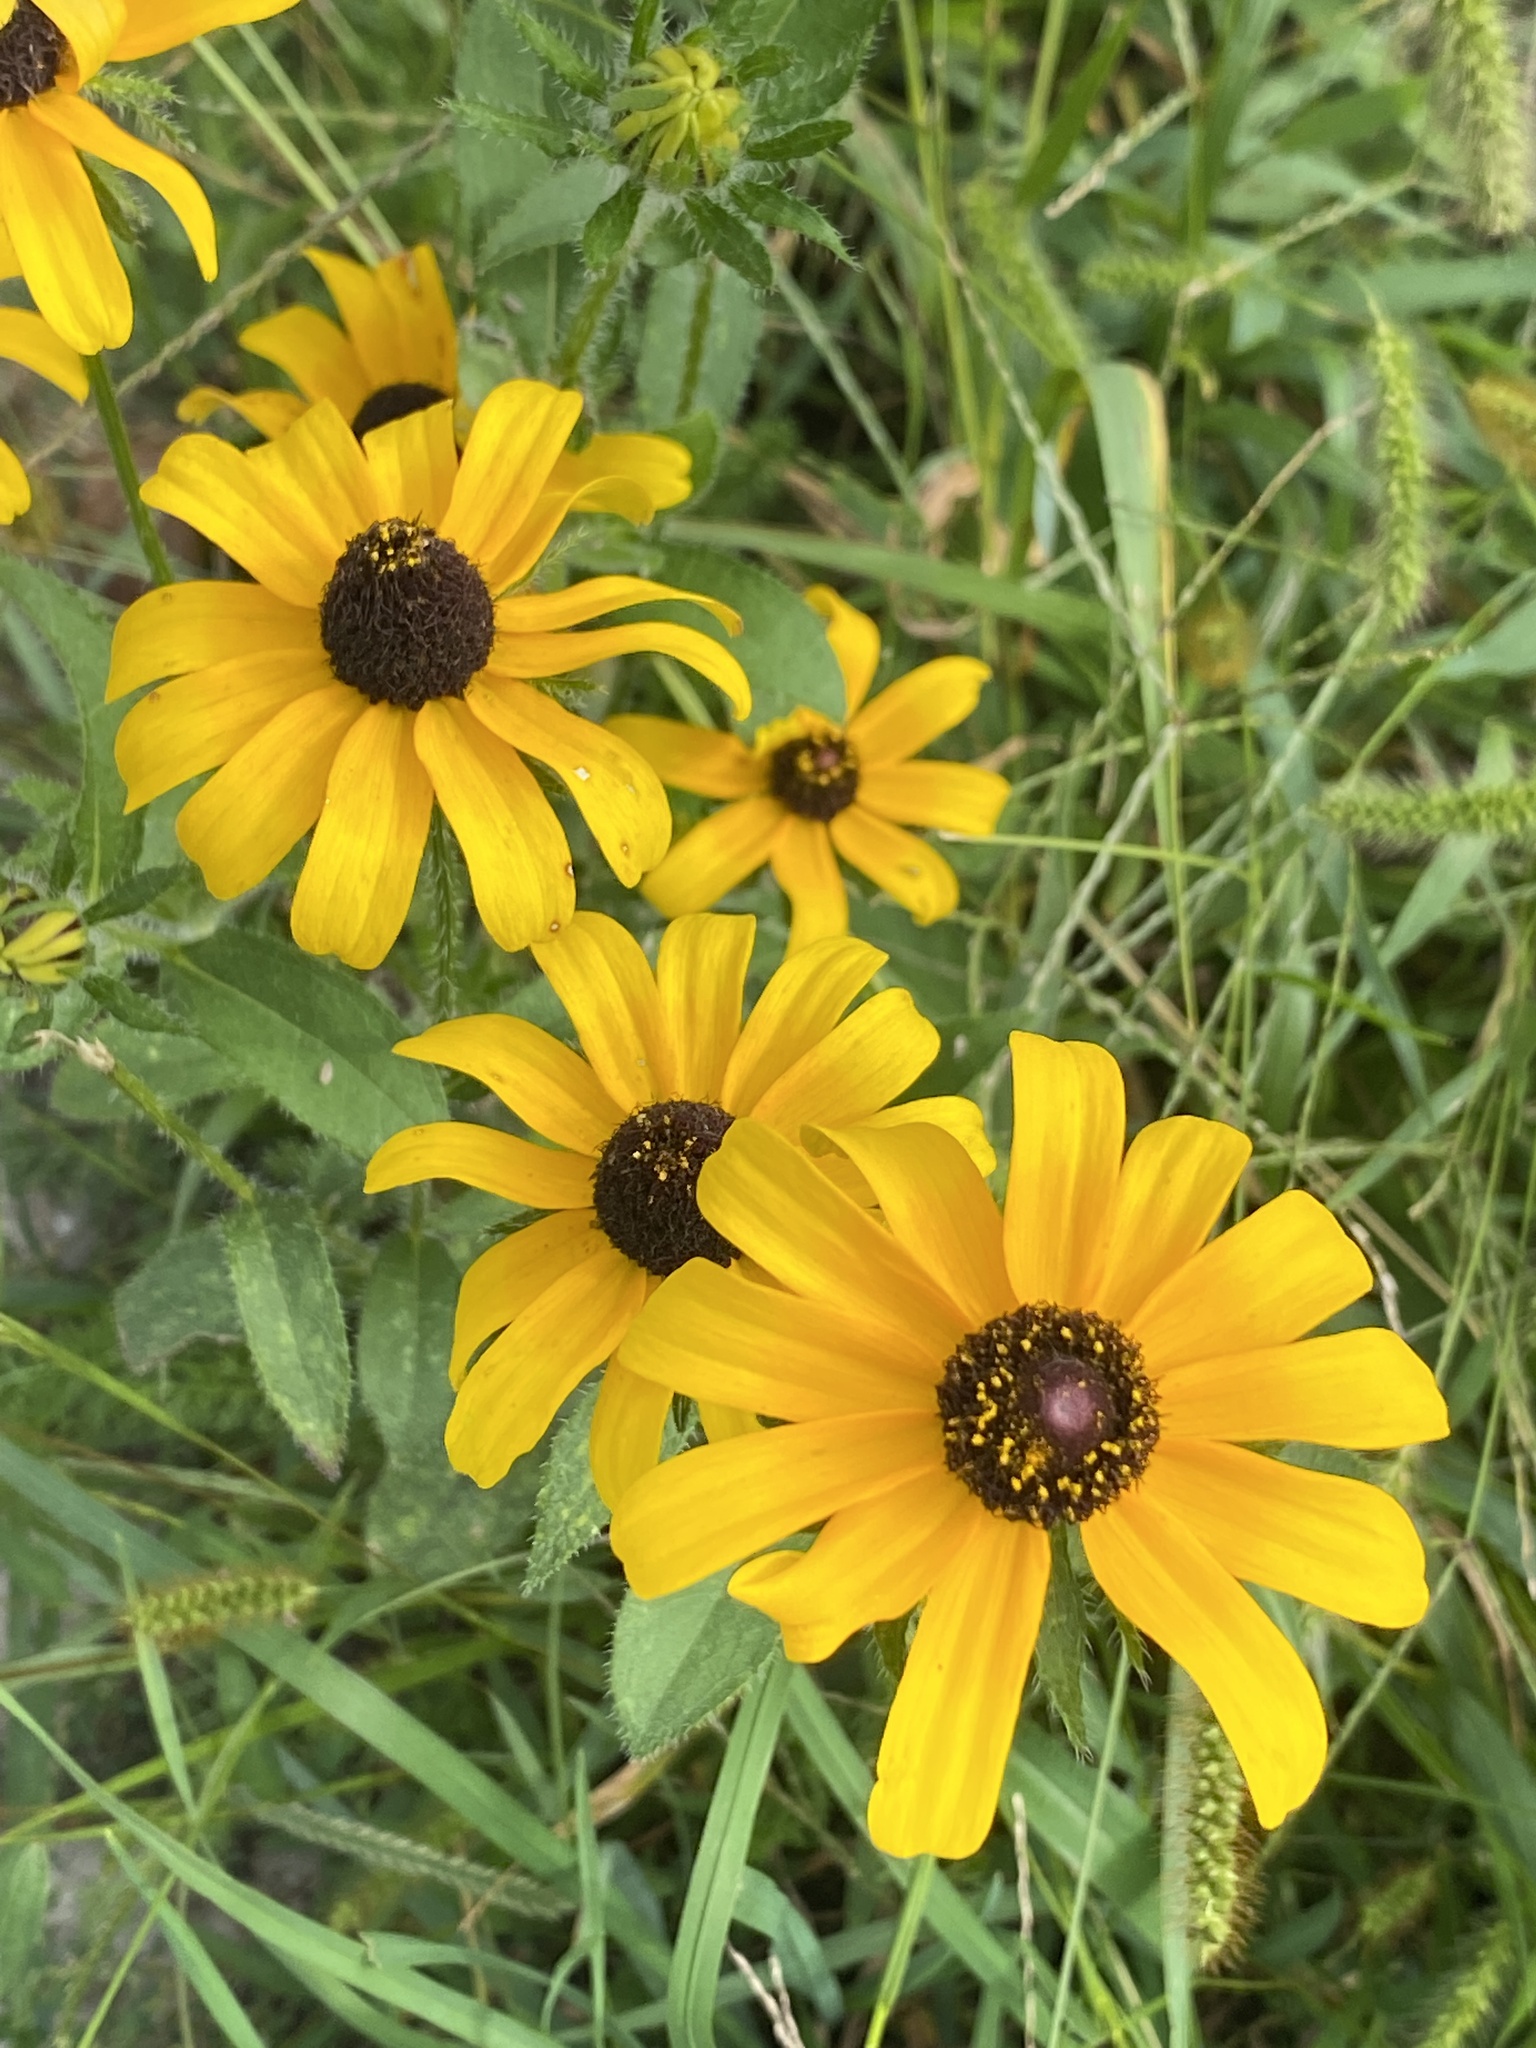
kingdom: Plantae
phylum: Tracheophyta
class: Magnoliopsida
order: Asterales
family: Asteraceae
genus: Rudbeckia
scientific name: Rudbeckia hirta
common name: Black-eyed-susan
